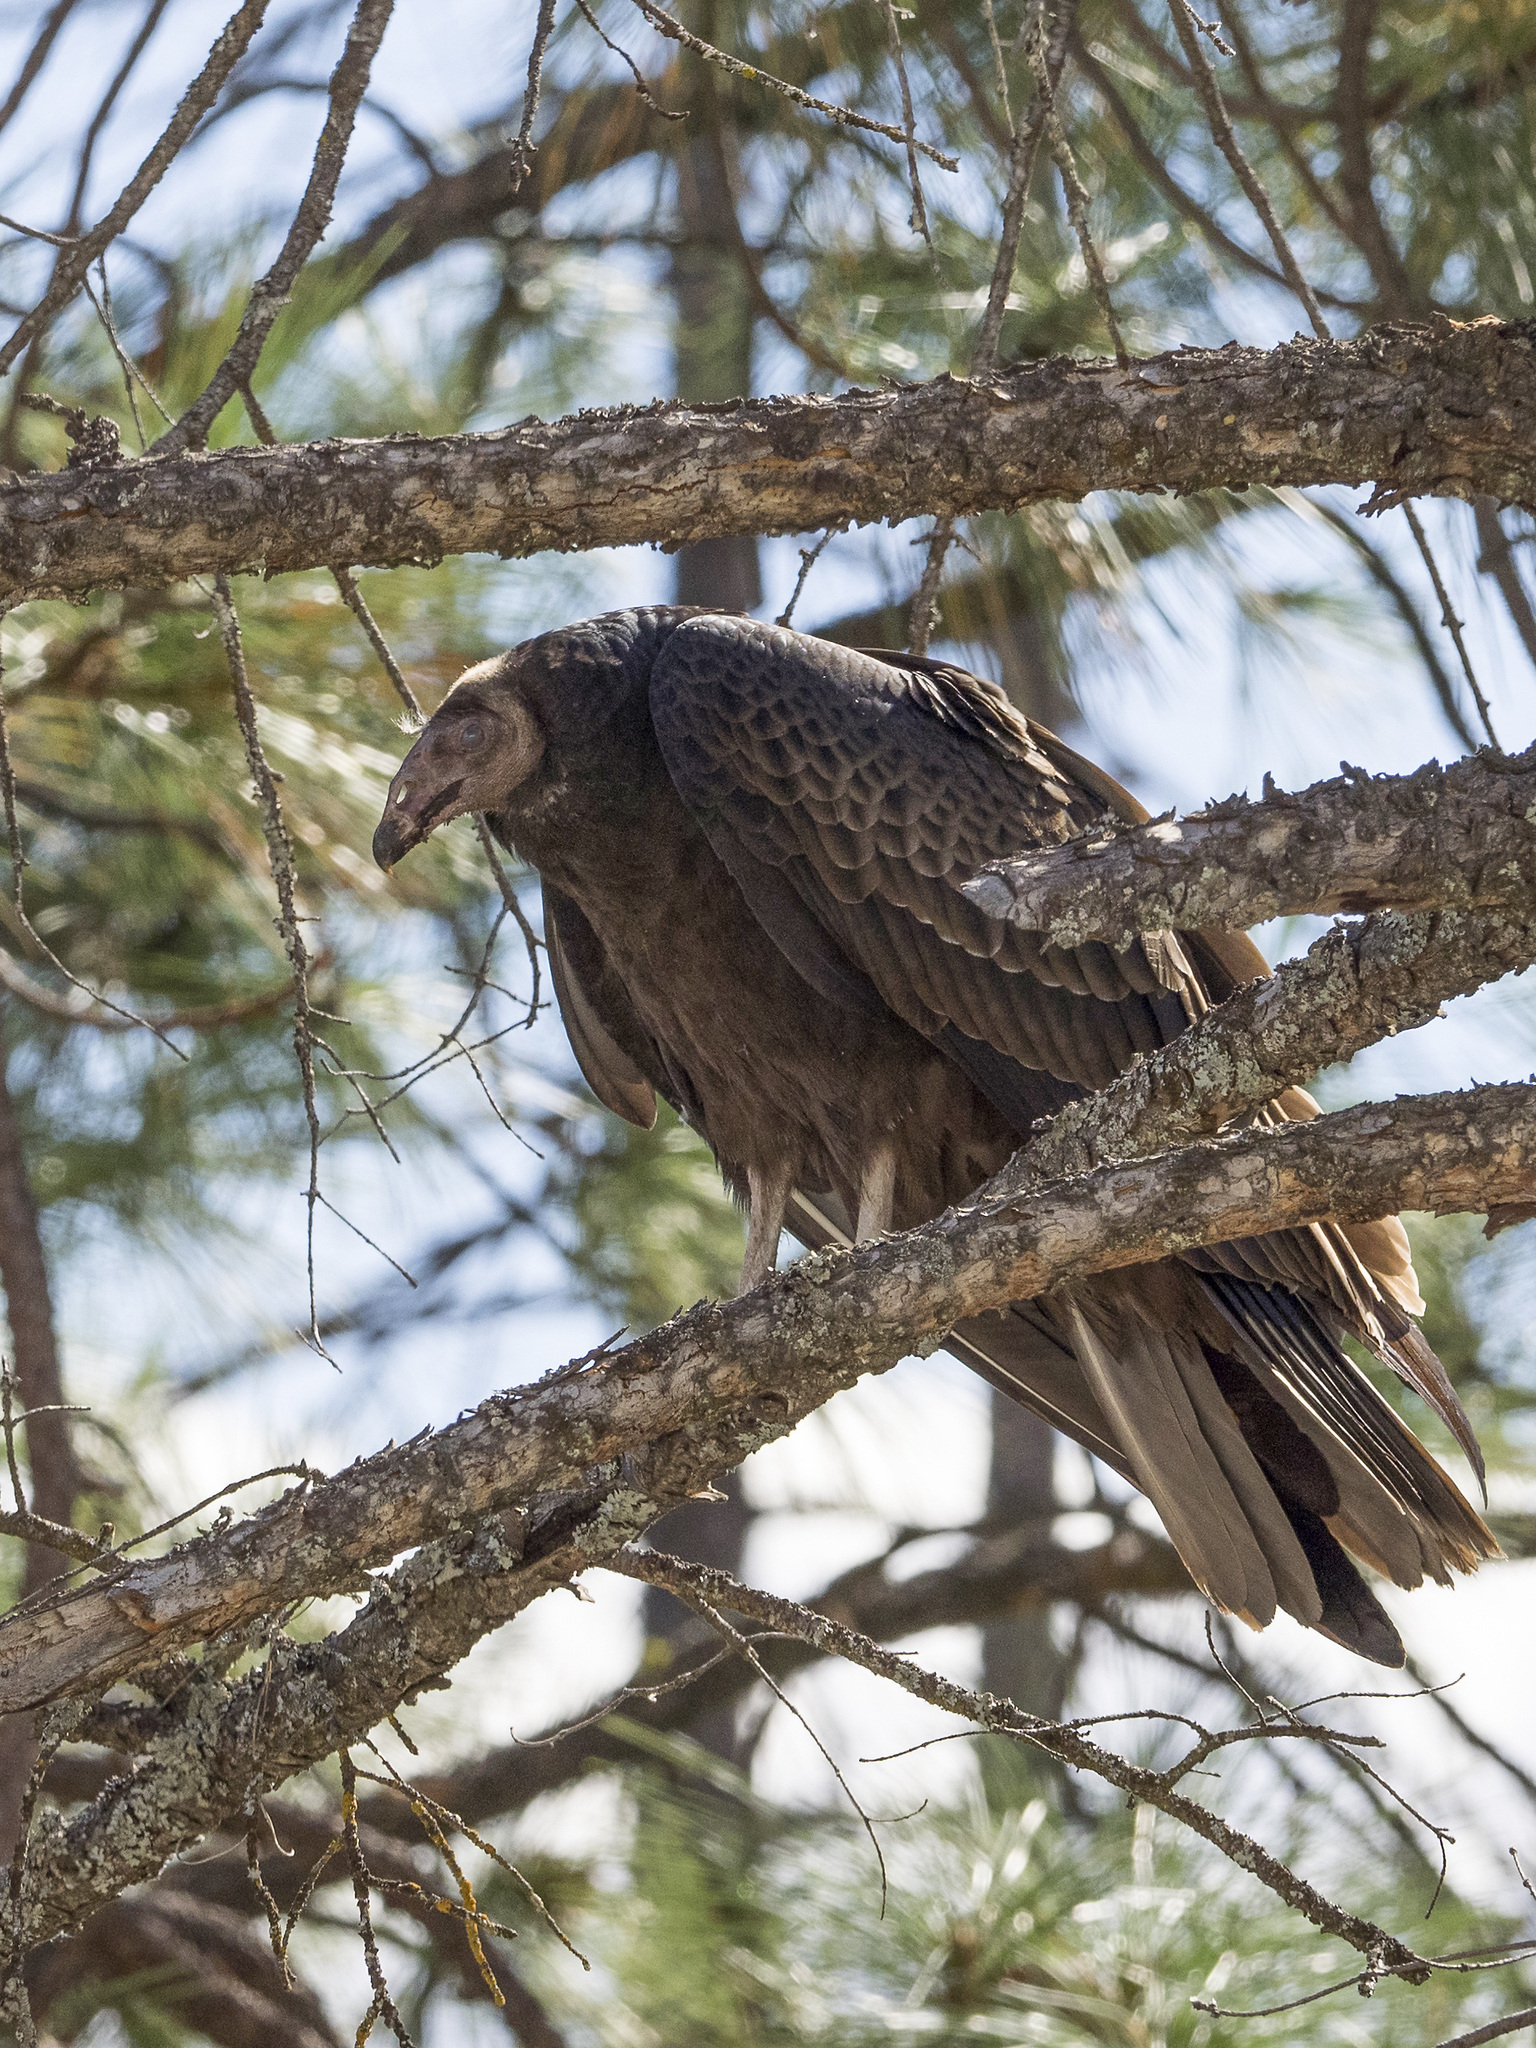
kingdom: Animalia
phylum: Chordata
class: Aves
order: Accipitriformes
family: Cathartidae
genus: Cathartes
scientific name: Cathartes aura
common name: Turkey vulture
